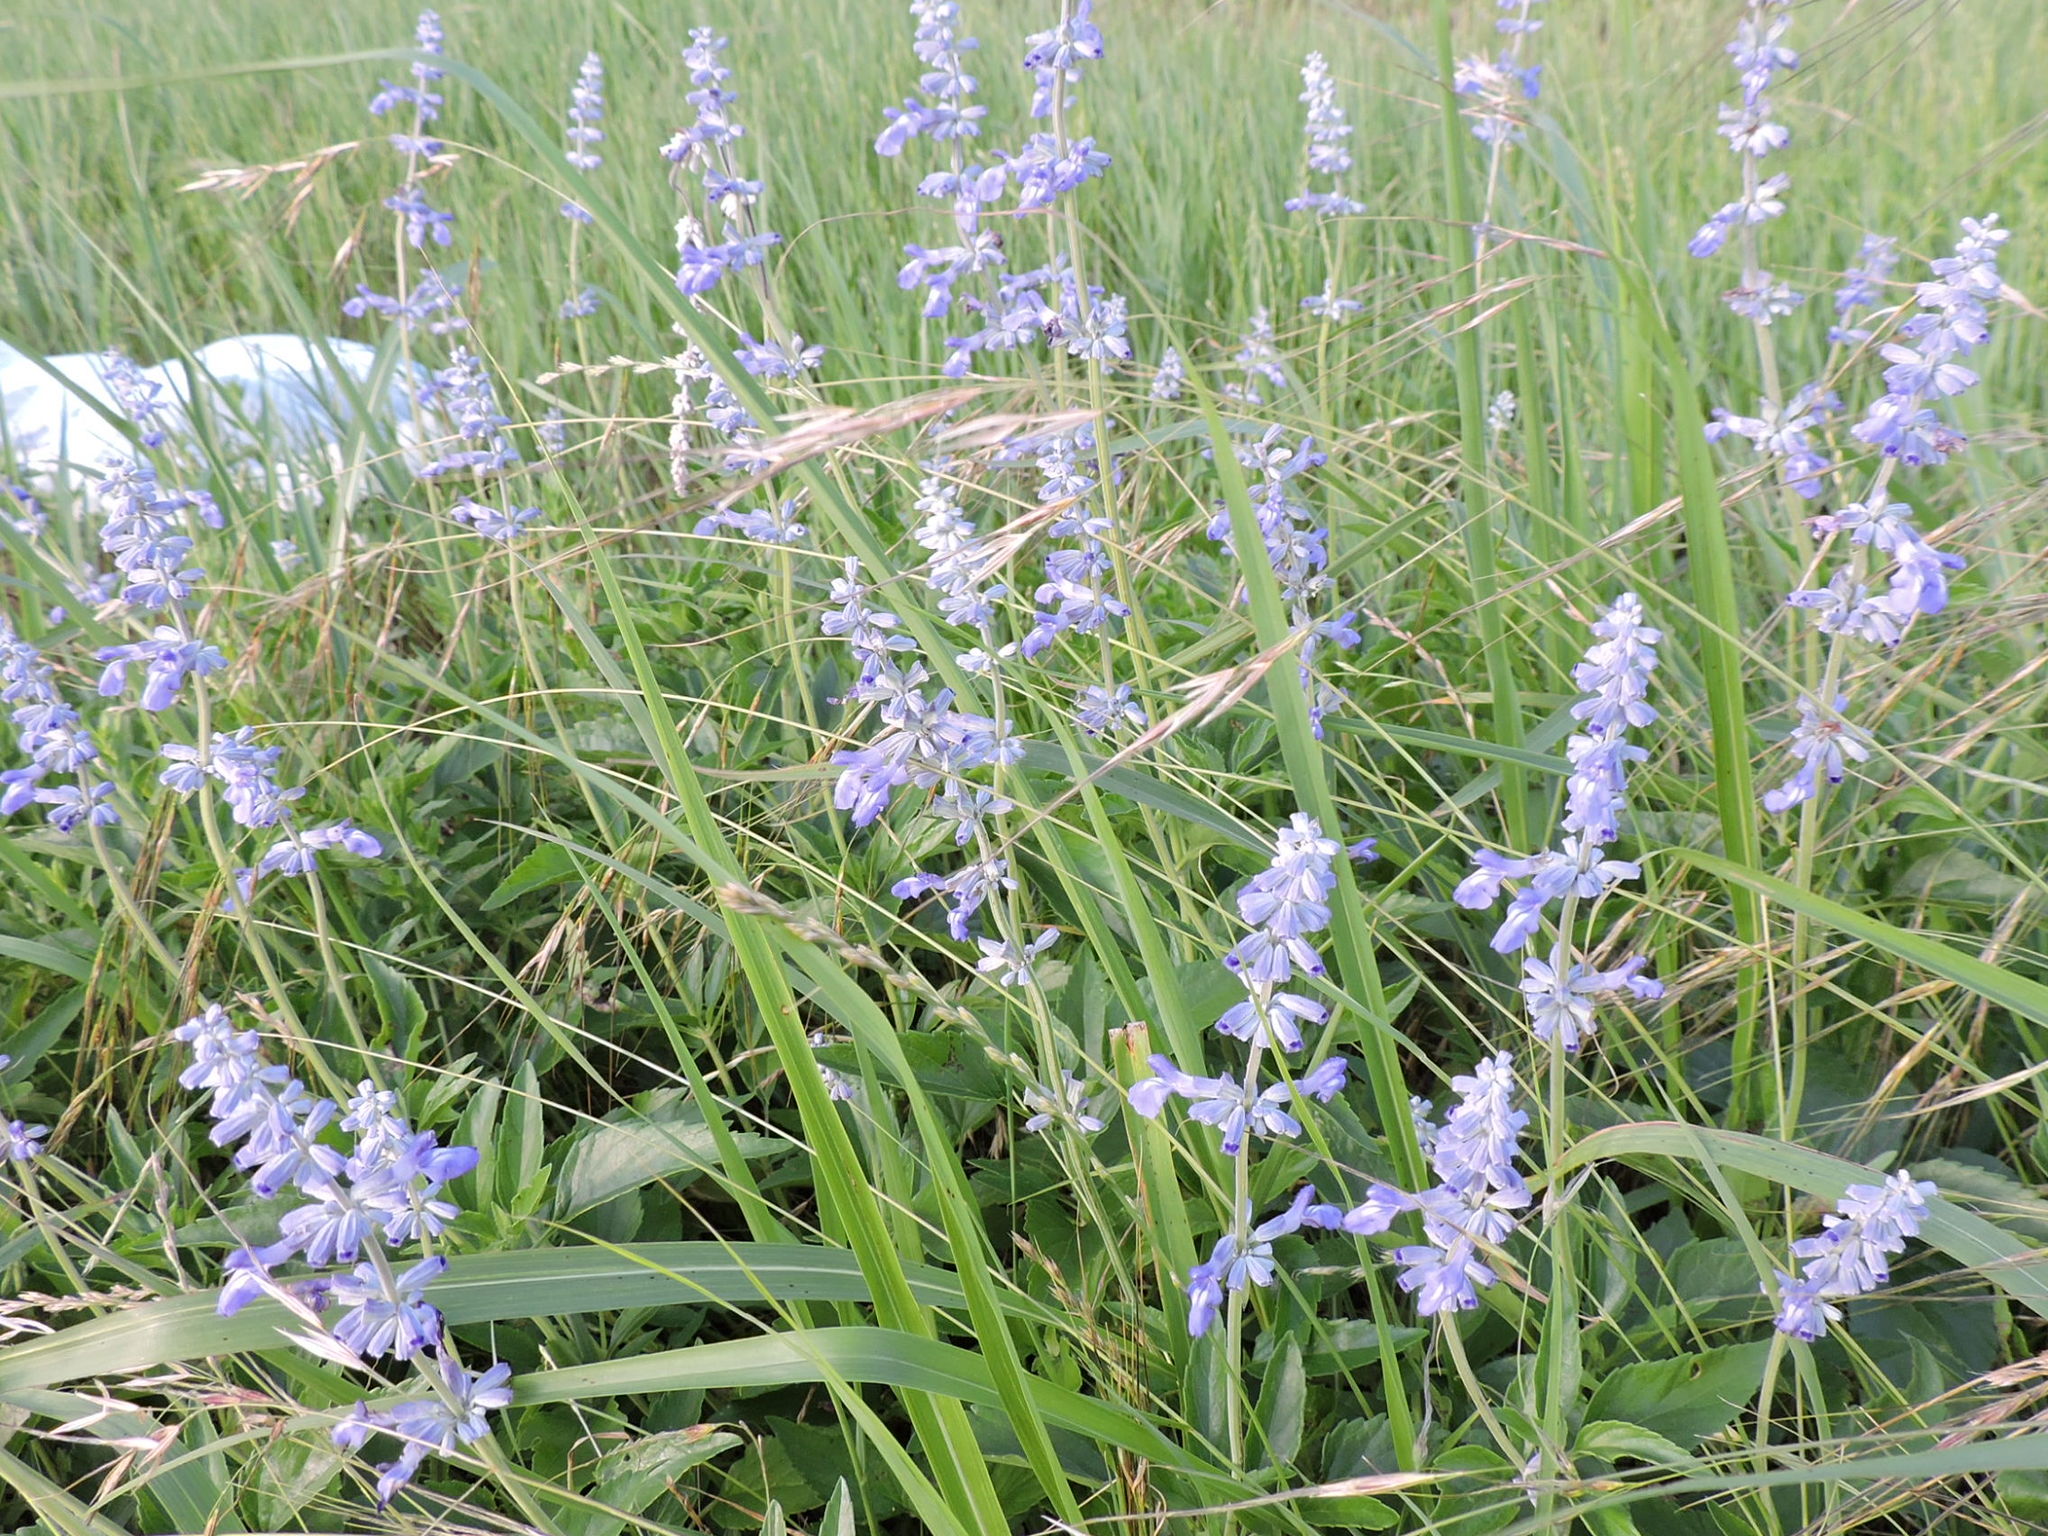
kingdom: Plantae
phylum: Tracheophyta
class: Magnoliopsida
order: Lamiales
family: Lamiaceae
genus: Salvia
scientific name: Salvia farinacea
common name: Mealy sage
